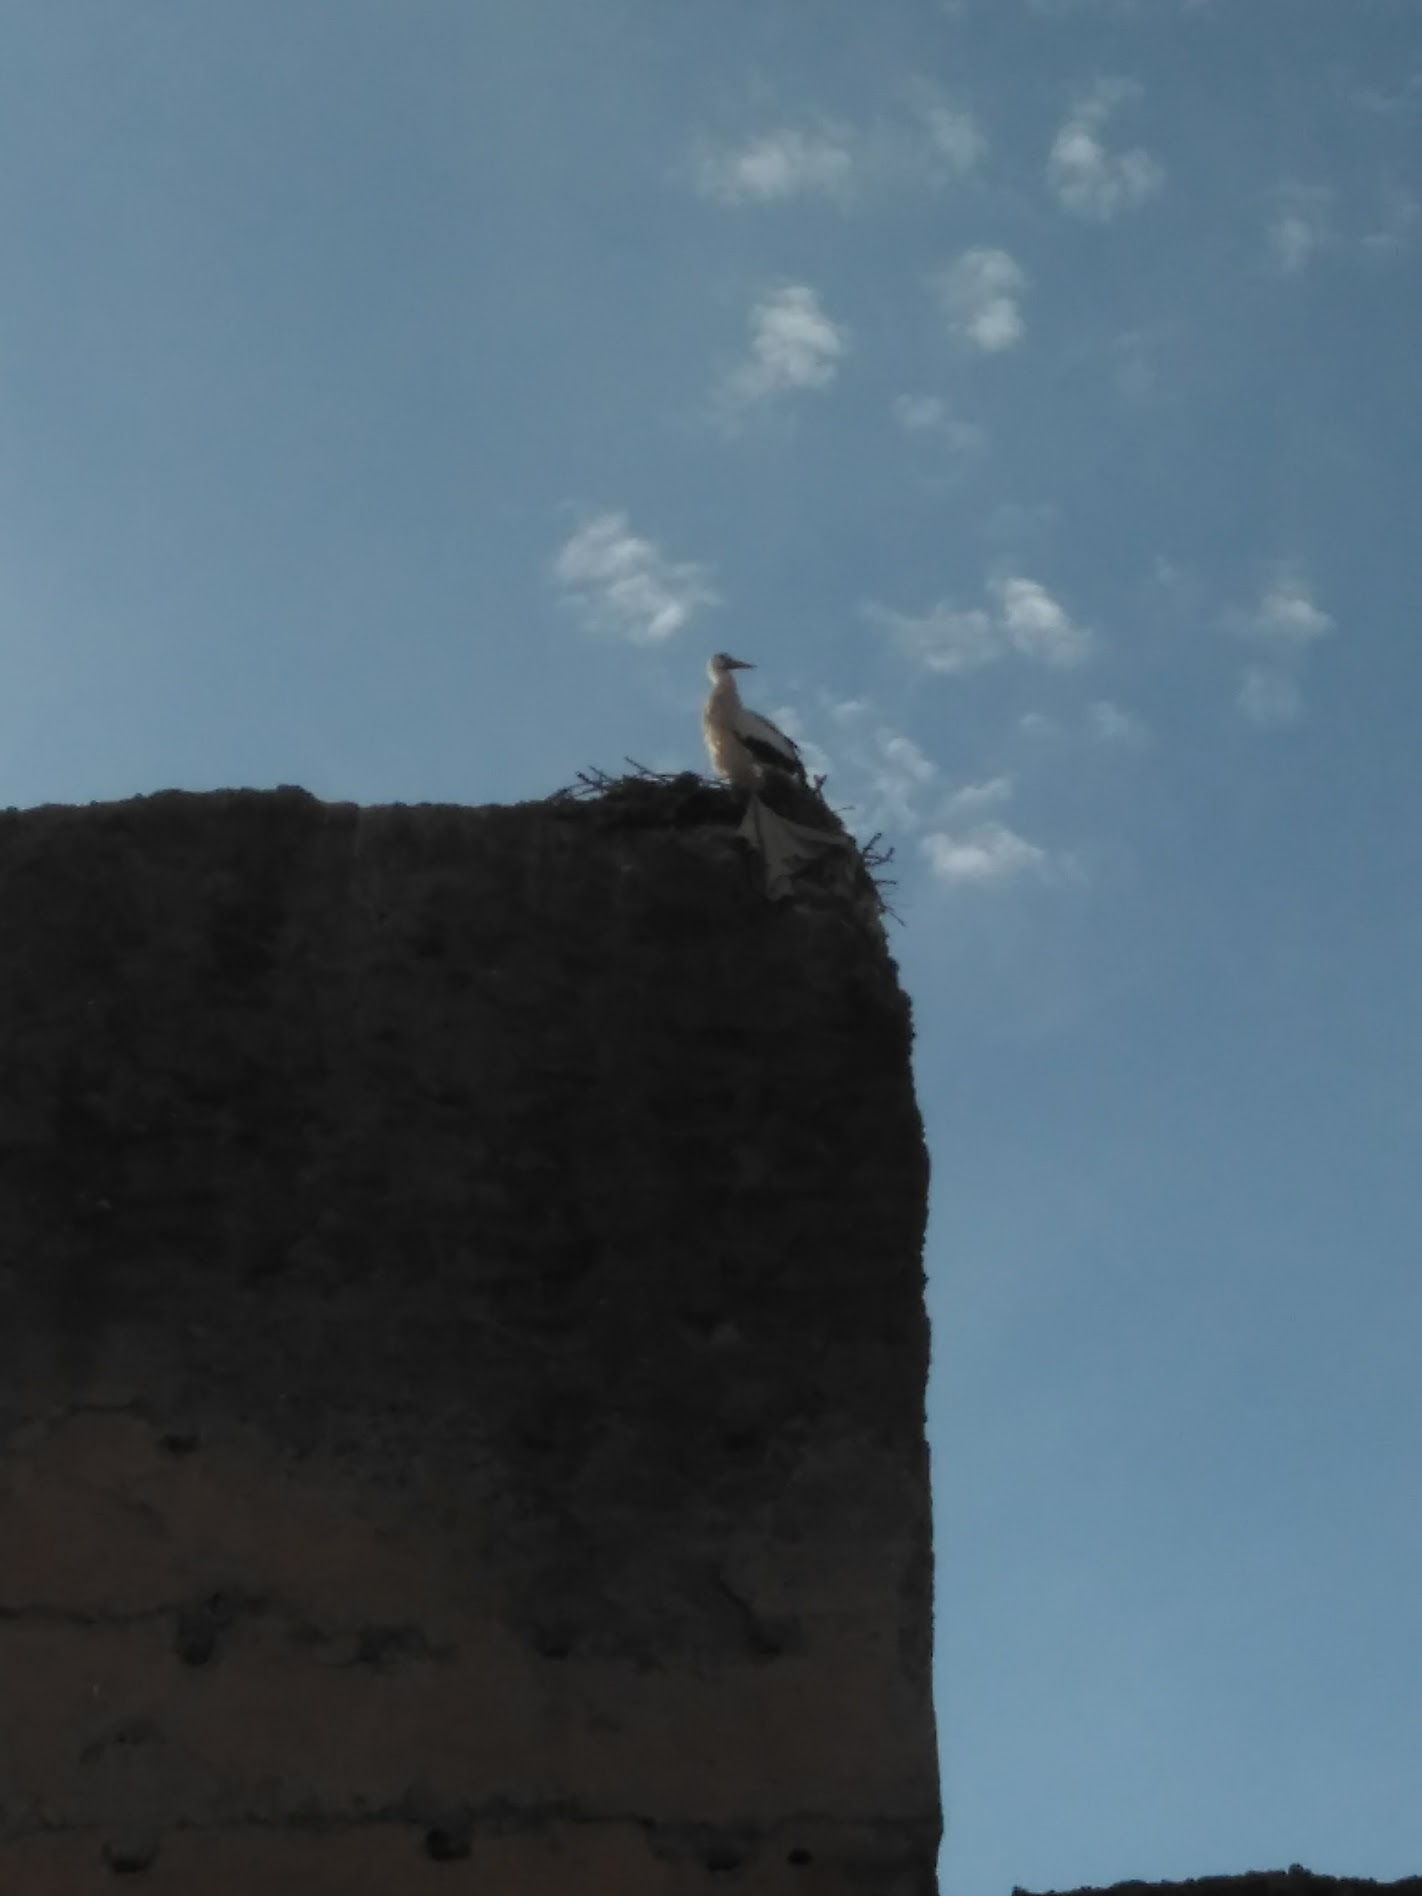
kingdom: Animalia
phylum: Chordata
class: Aves
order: Ciconiiformes
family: Ciconiidae
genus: Ciconia
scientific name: Ciconia ciconia
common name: White stork
